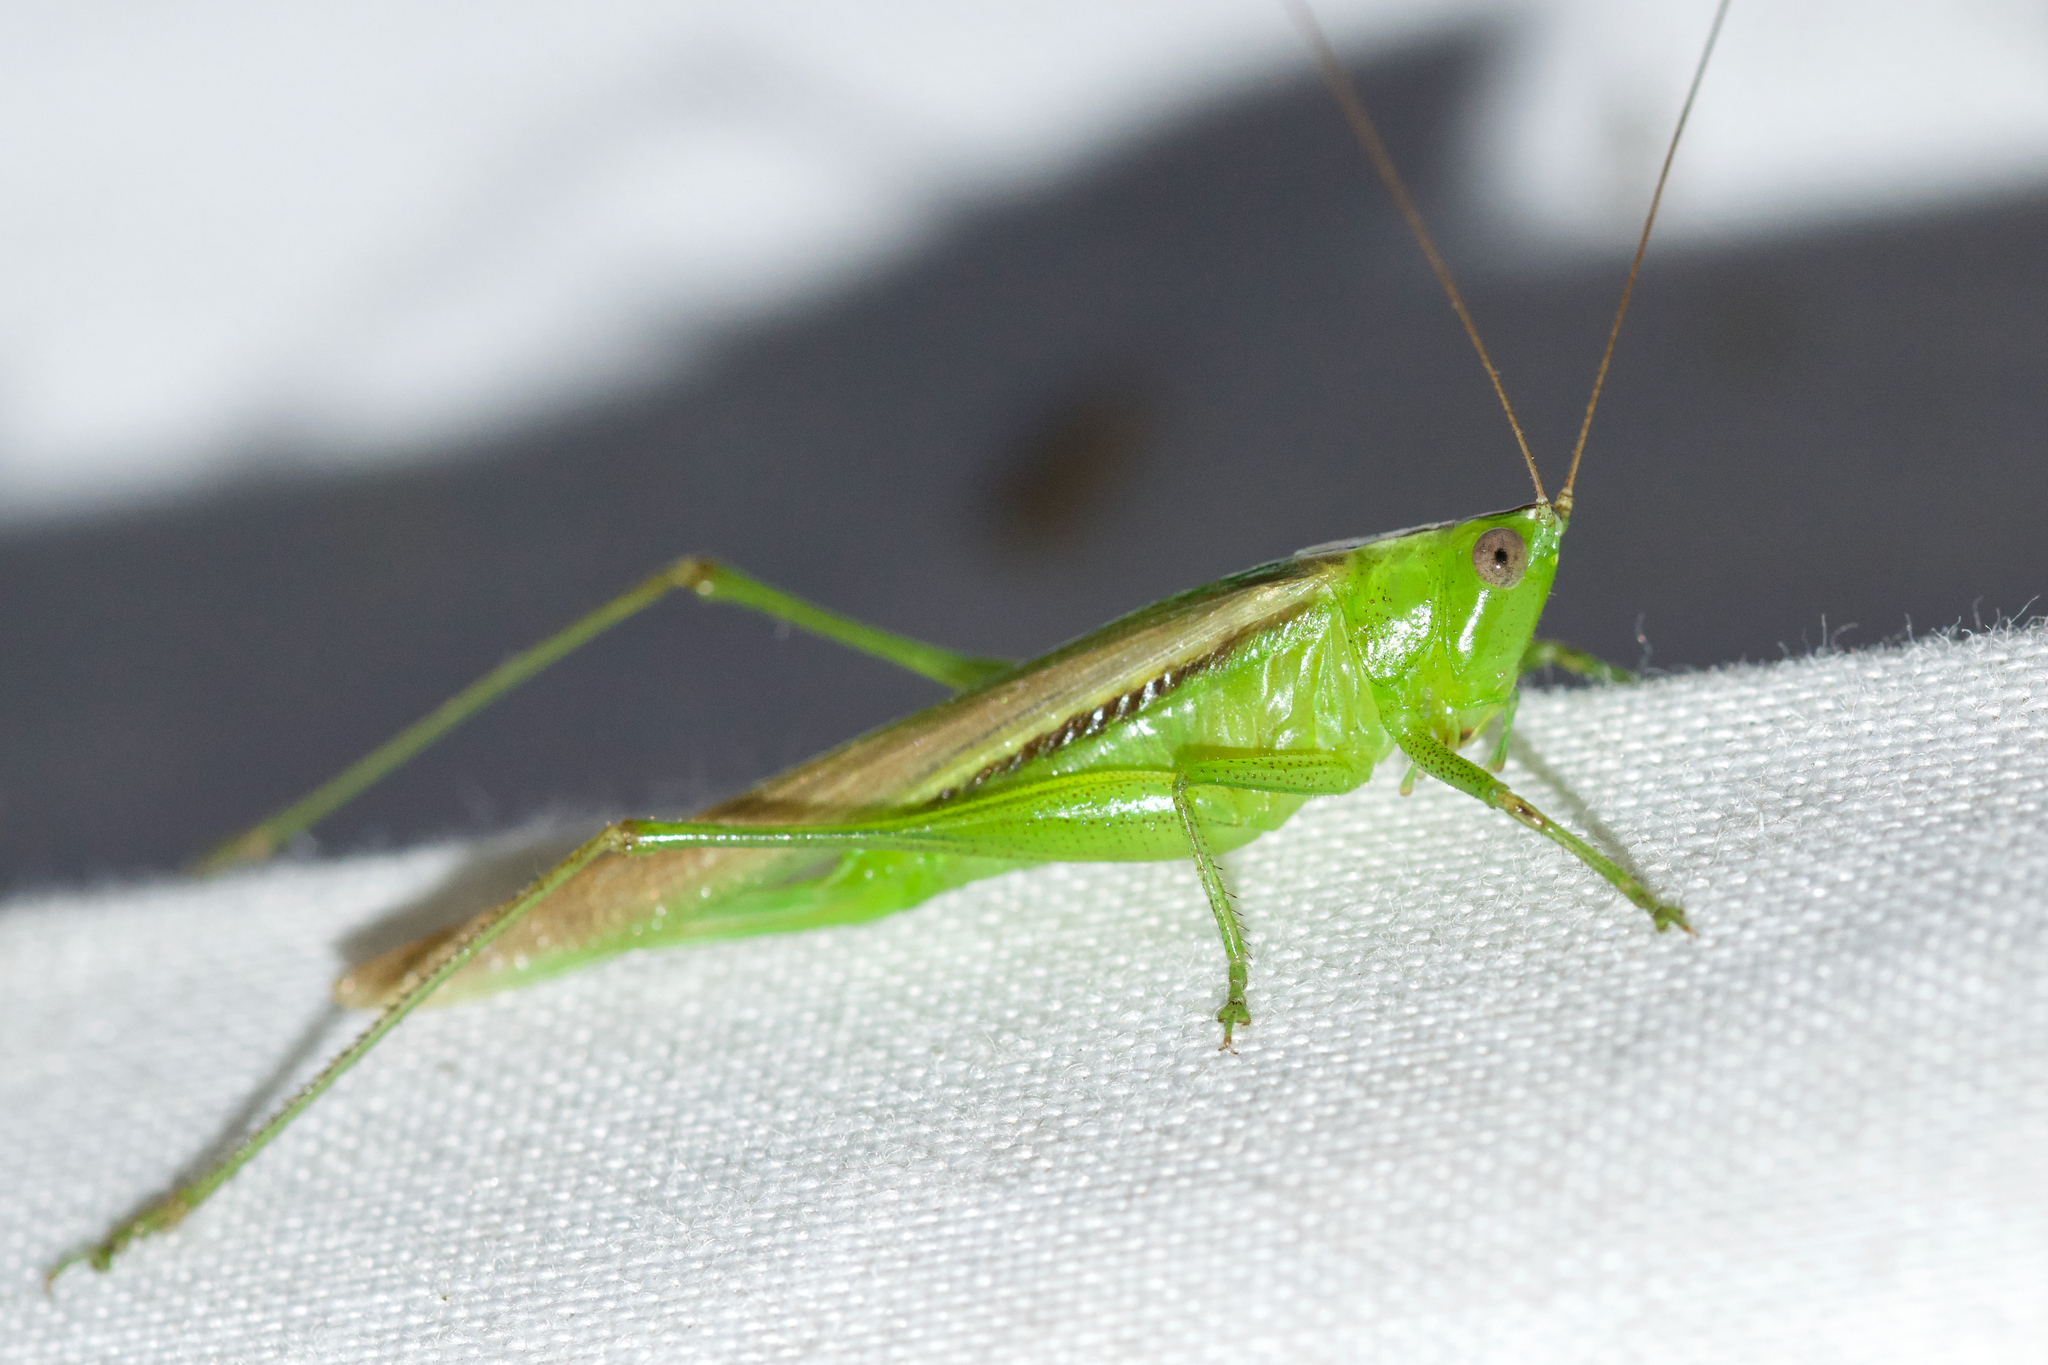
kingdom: Animalia
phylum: Arthropoda
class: Insecta
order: Orthoptera
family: Tettigoniidae
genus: Conocephalus
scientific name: Conocephalus fasciatus
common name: Slender meadow katydid
